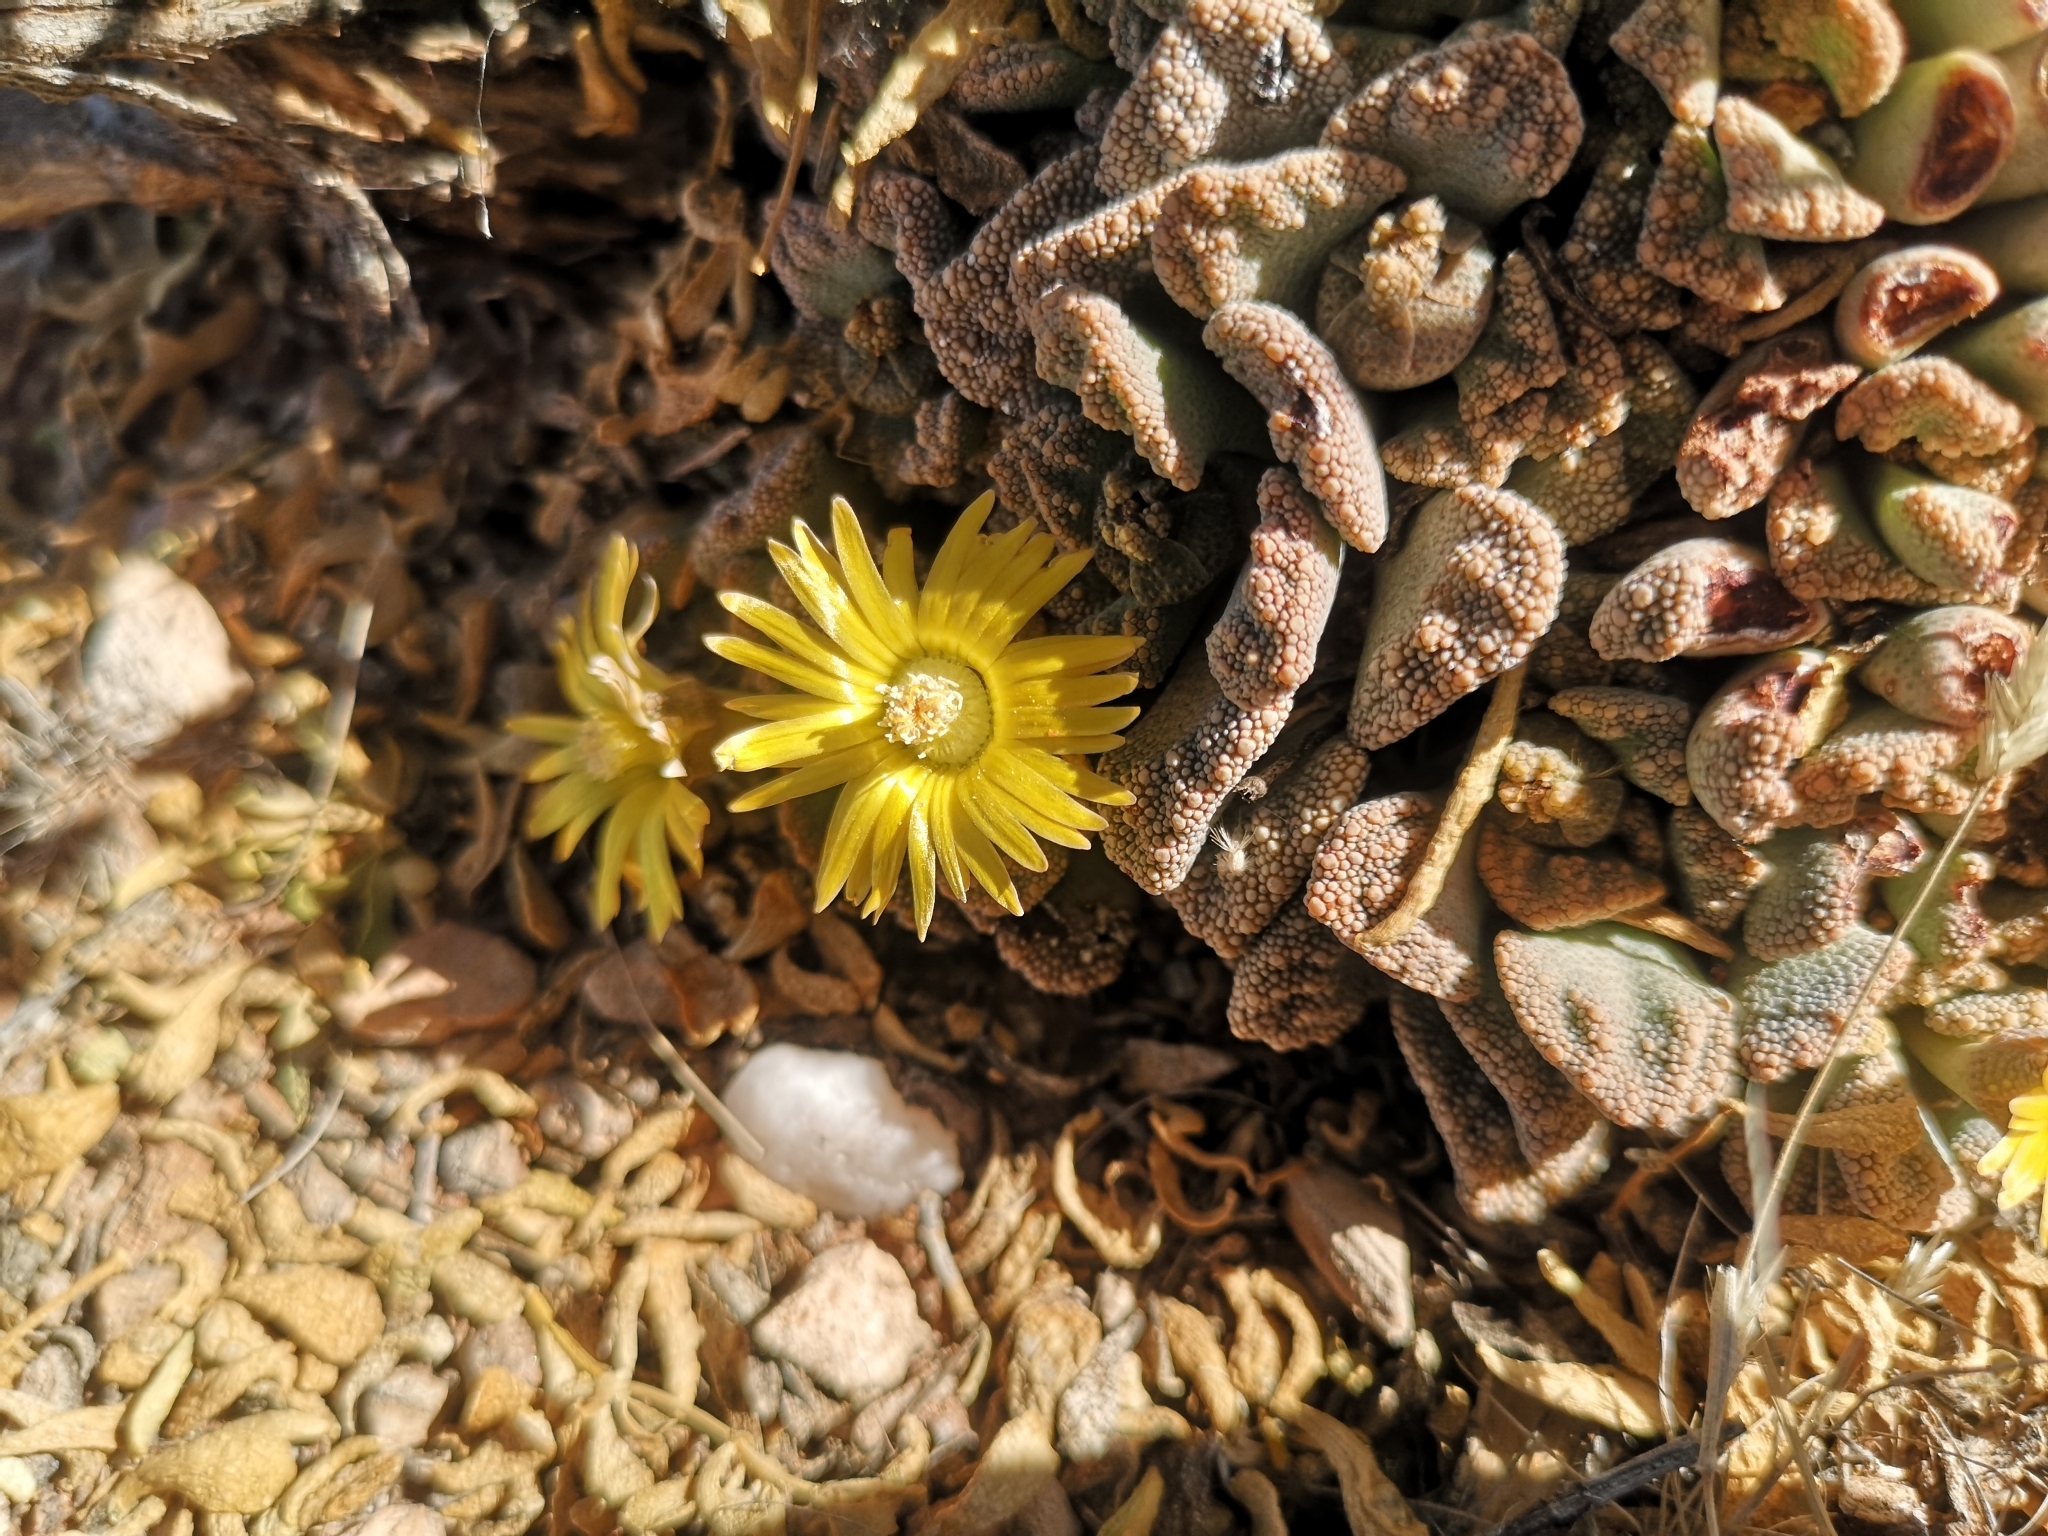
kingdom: Plantae
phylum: Tracheophyta
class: Magnoliopsida
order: Caryophyllales
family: Aizoaceae
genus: Titanopsis
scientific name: Titanopsis calcarea
